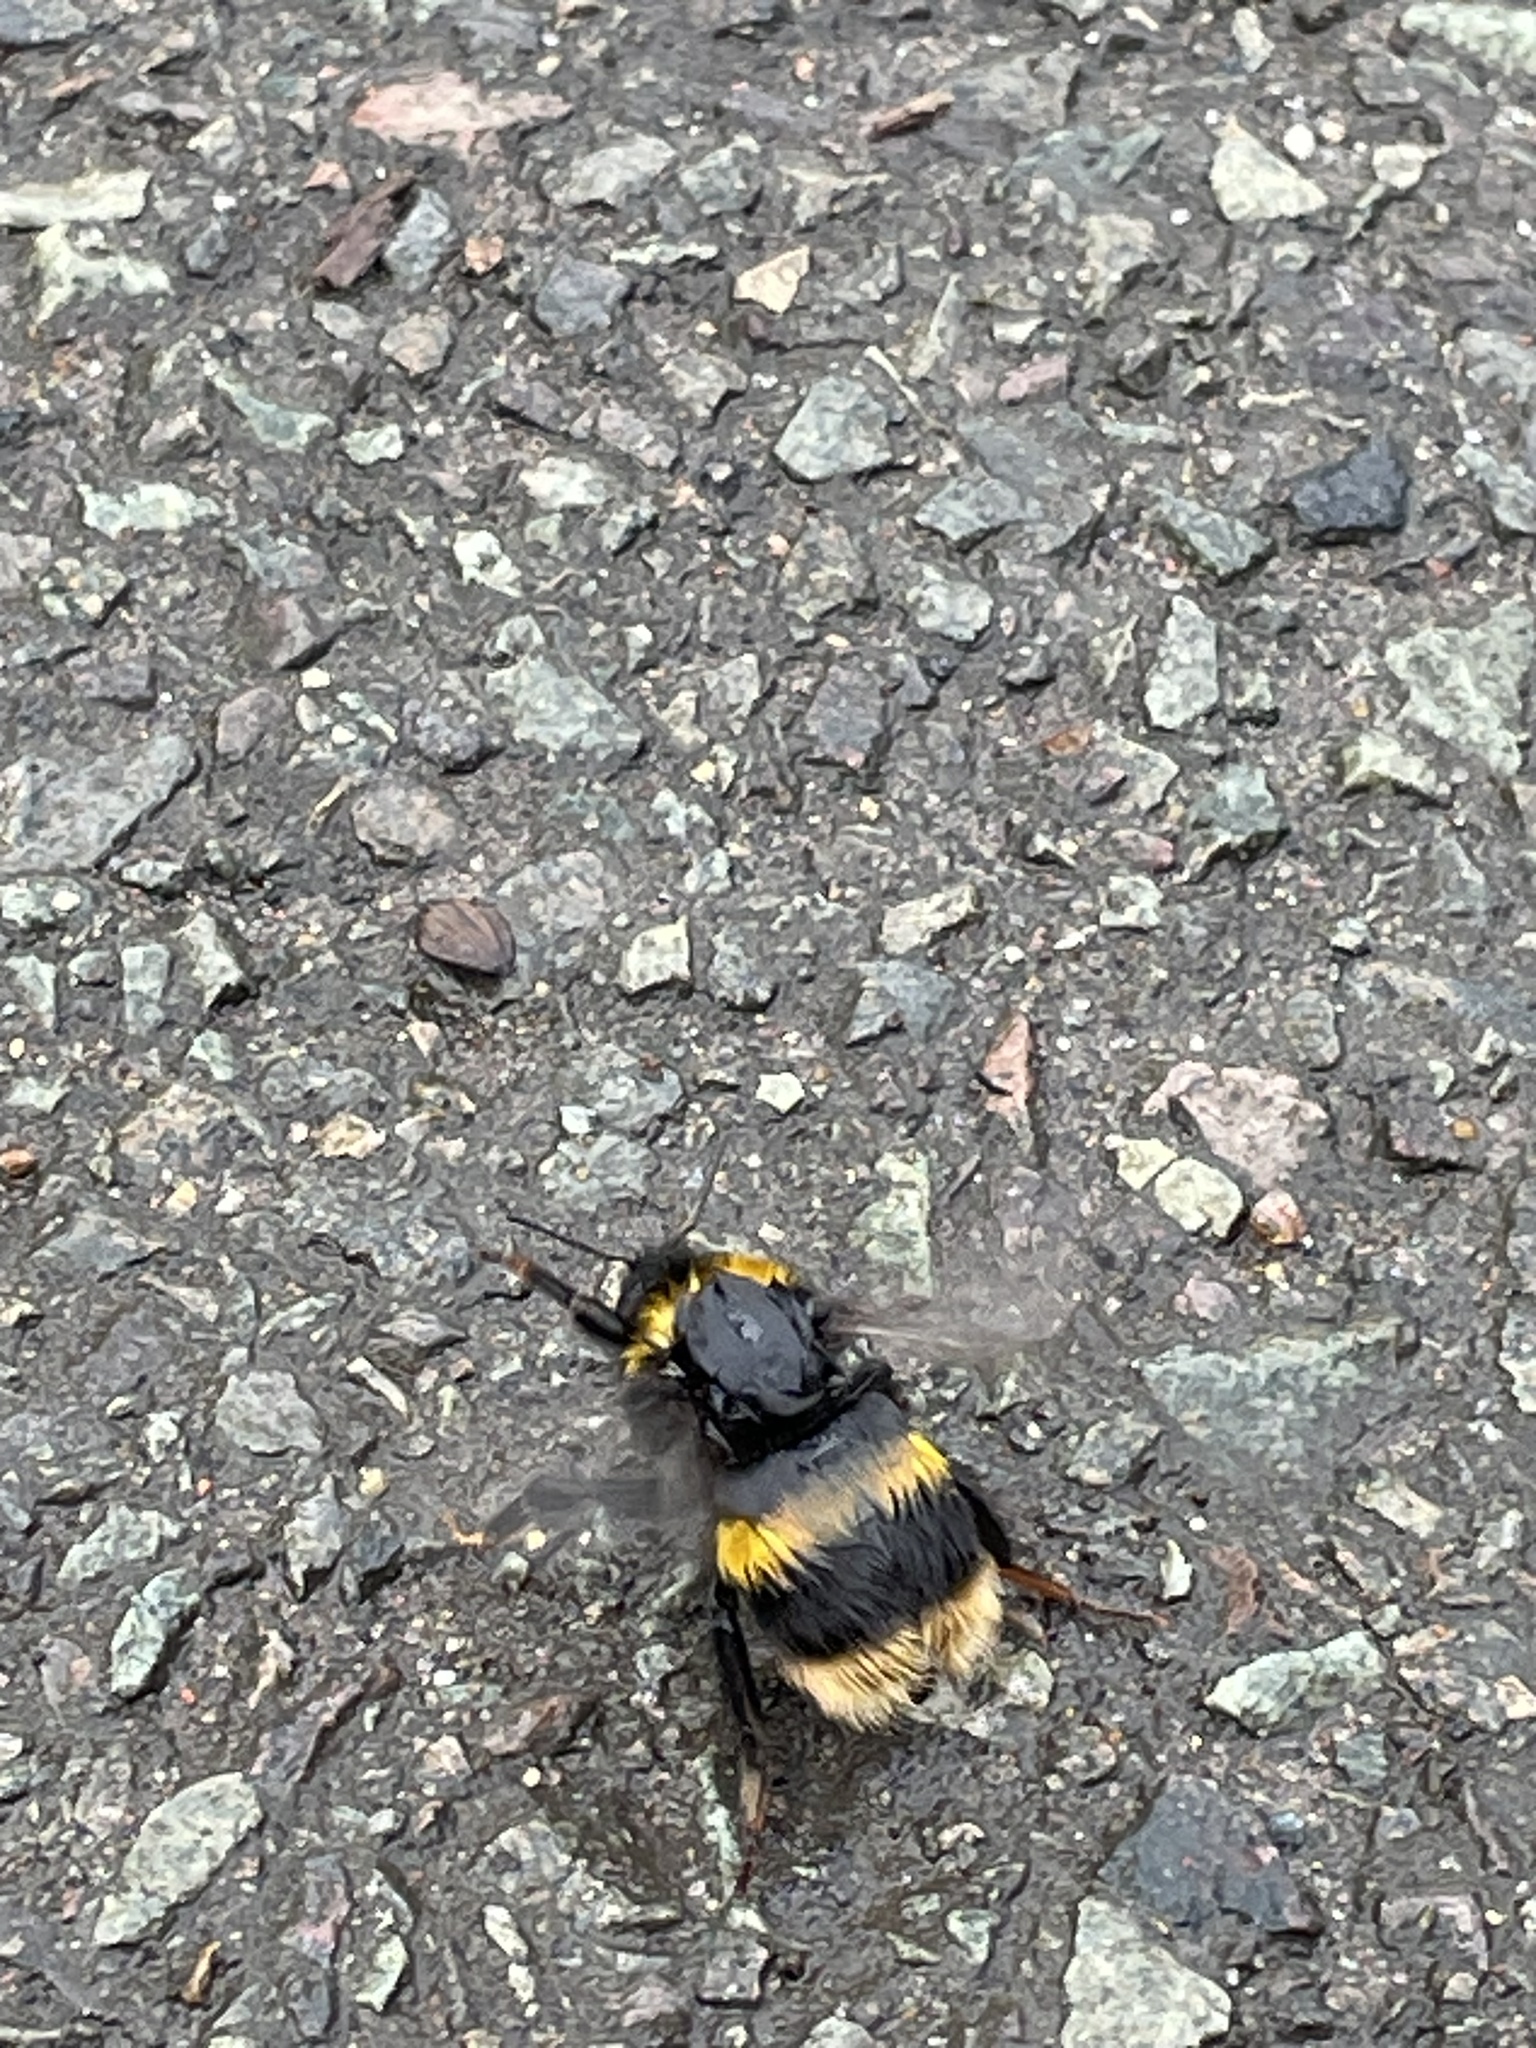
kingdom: Animalia
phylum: Arthropoda
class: Insecta
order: Hymenoptera
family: Apidae
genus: Bombus
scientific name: Bombus terrestris
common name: Buff-tailed bumblebee
